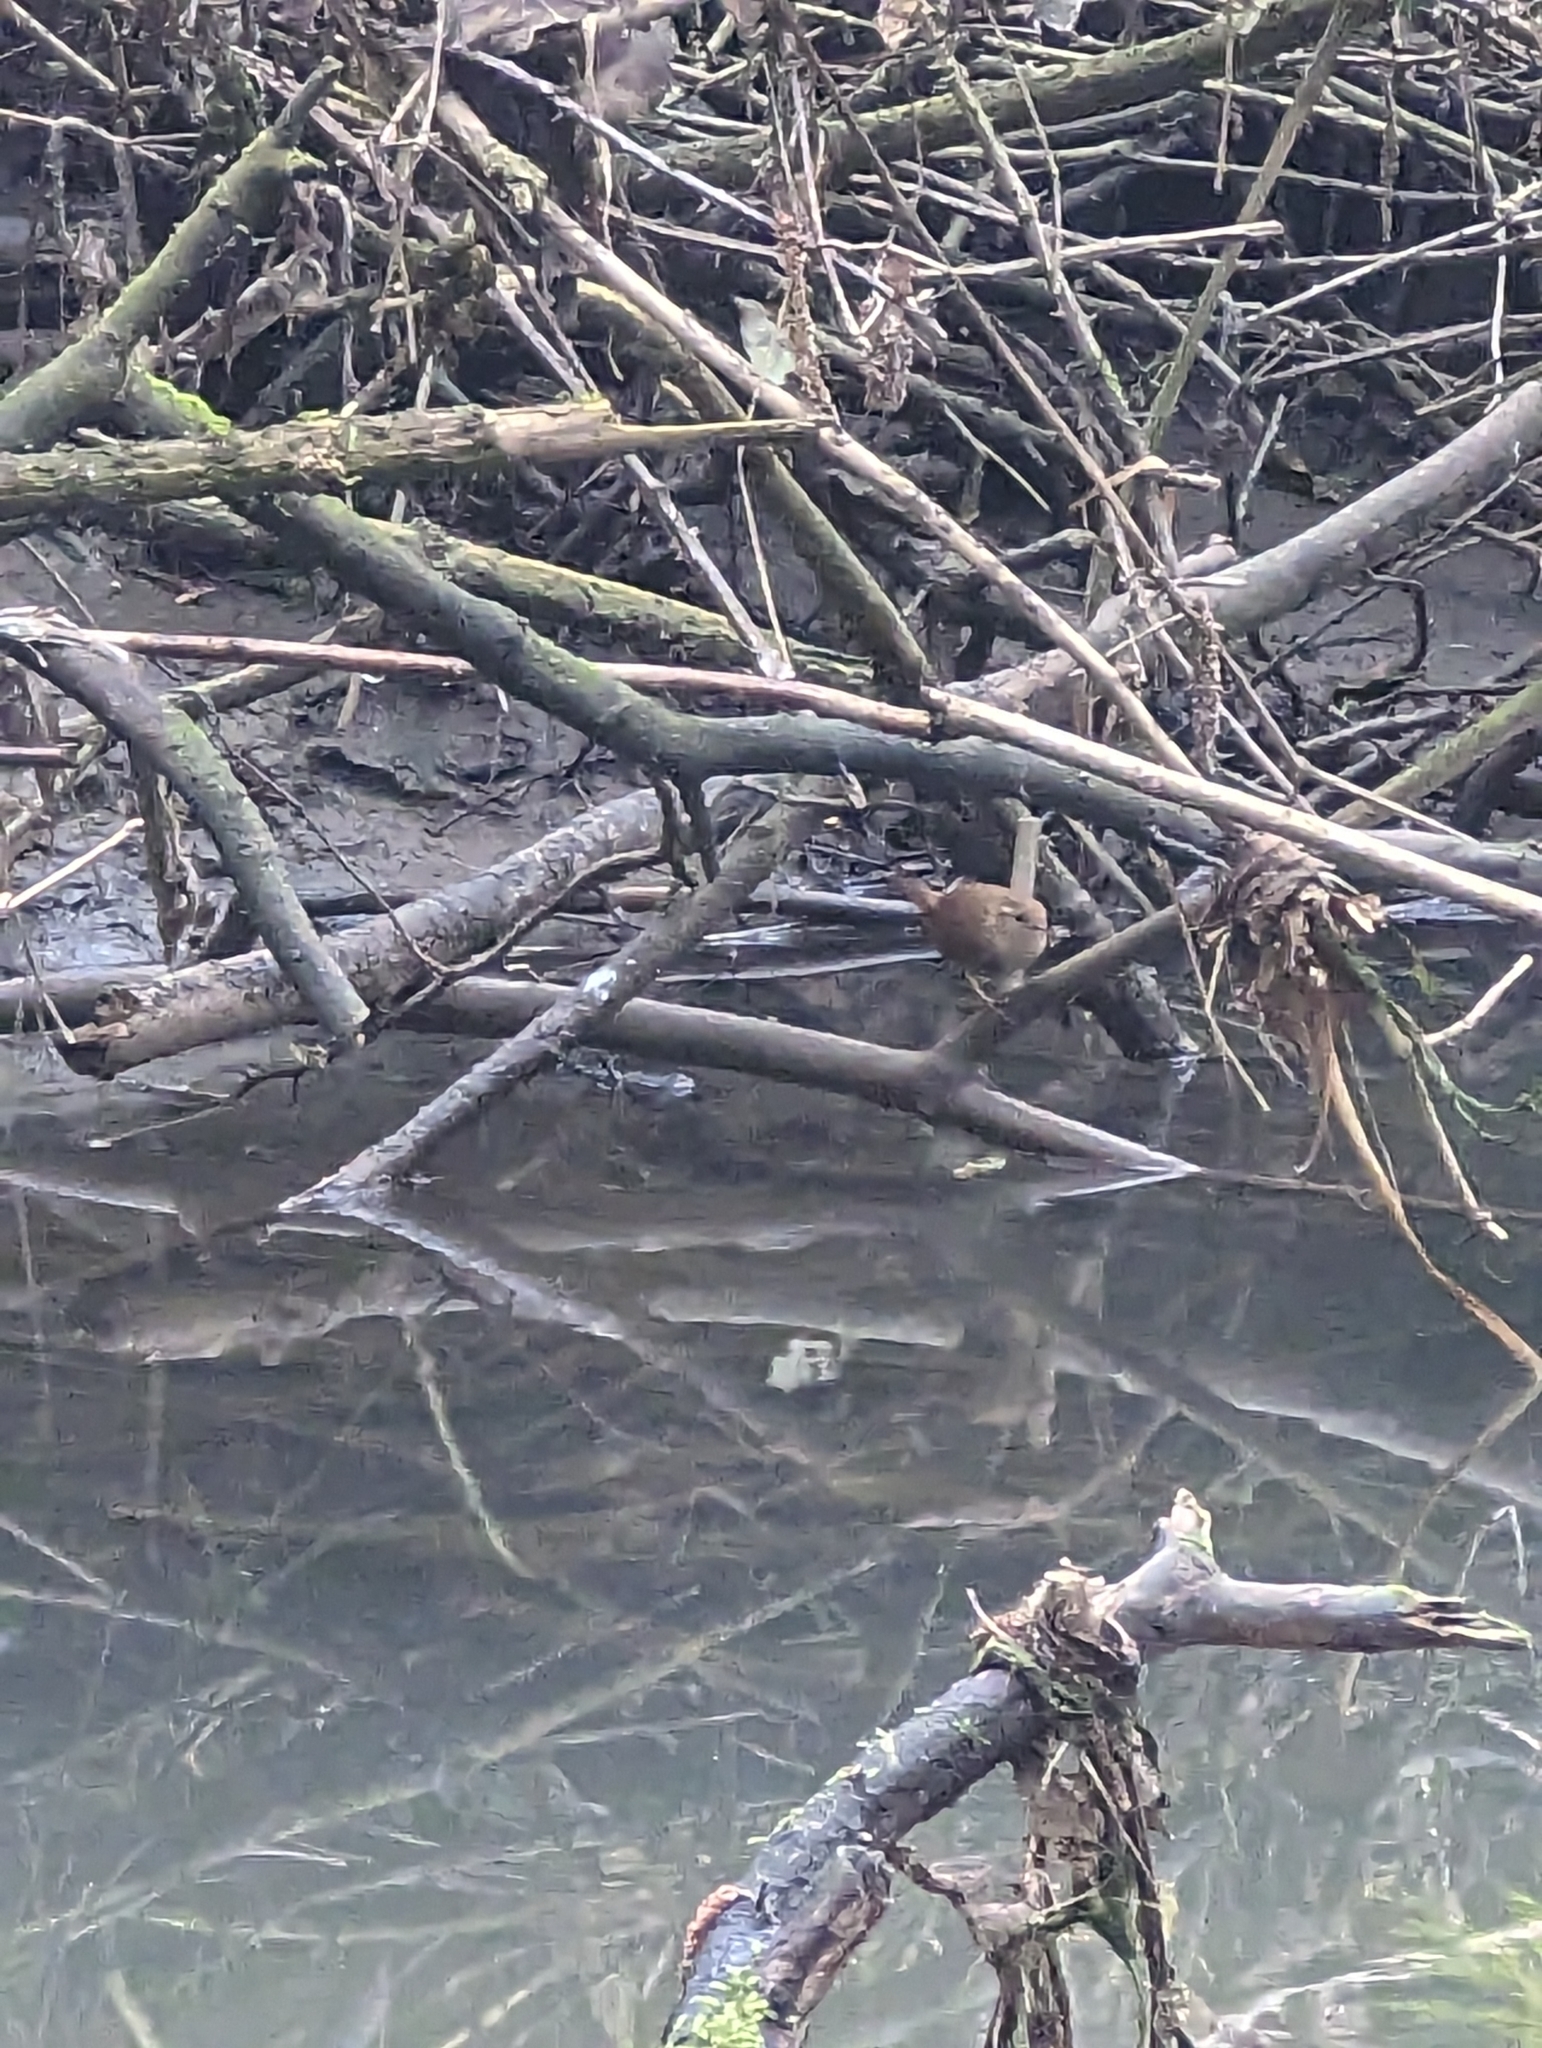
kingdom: Animalia
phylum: Chordata
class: Aves
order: Passeriformes
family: Troglodytidae
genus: Troglodytes
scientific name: Troglodytes troglodytes
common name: Eurasian wren
